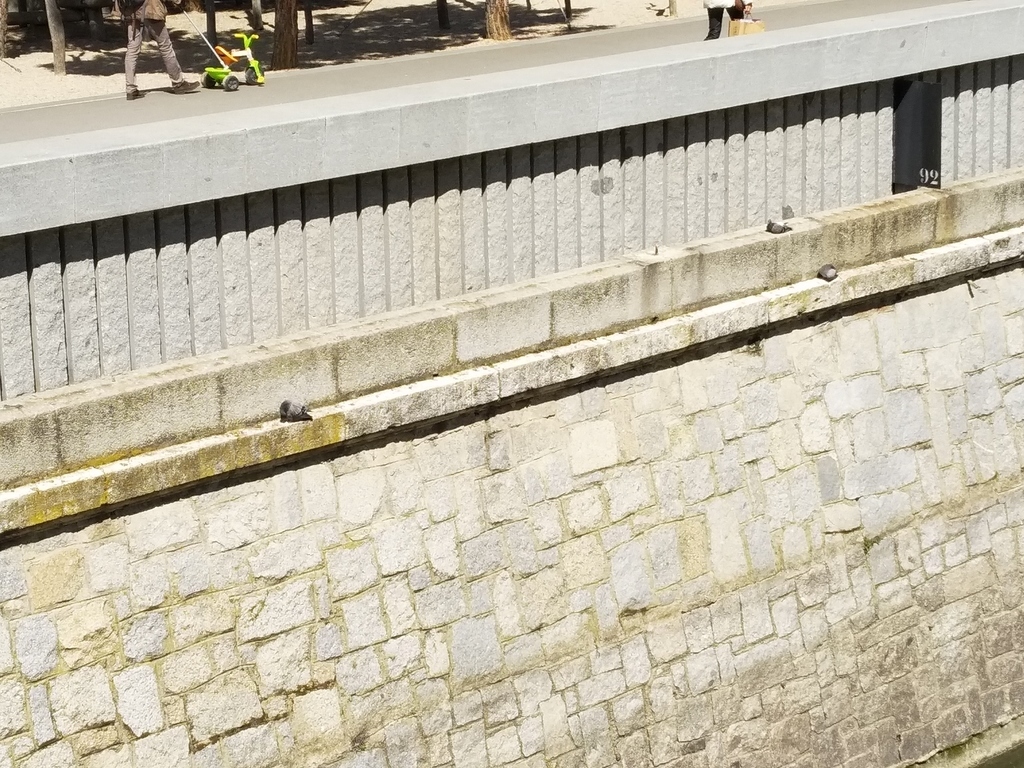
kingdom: Animalia
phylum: Chordata
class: Aves
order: Columbiformes
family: Columbidae
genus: Columba
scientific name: Columba livia
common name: Rock pigeon
